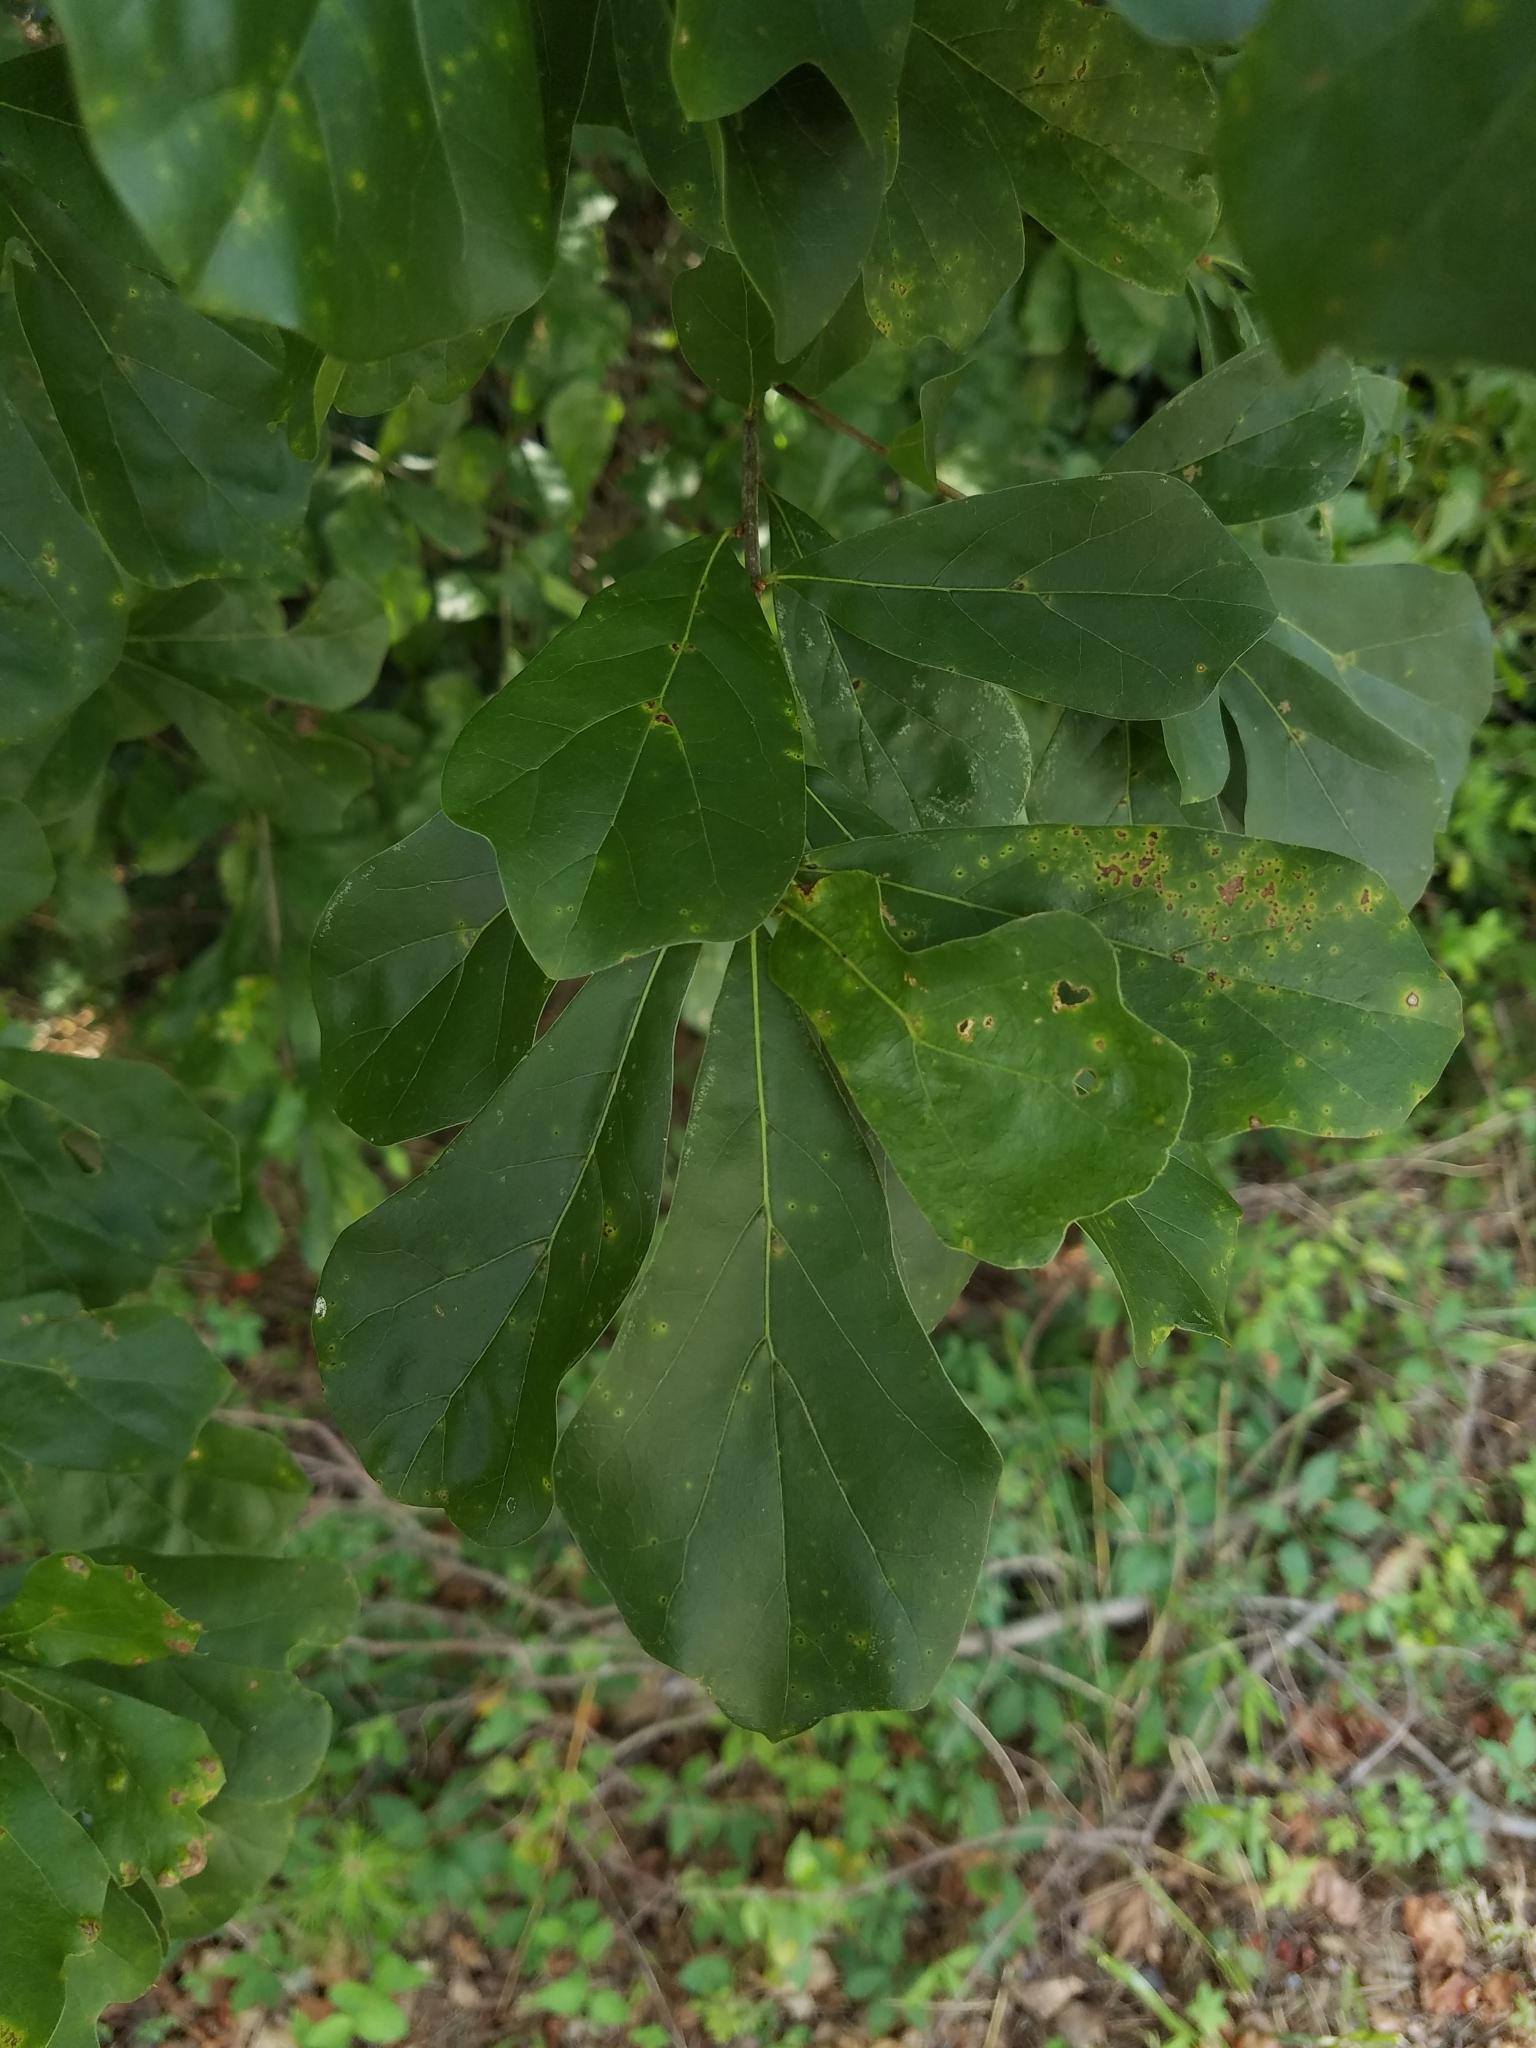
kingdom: Plantae
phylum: Tracheophyta
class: Magnoliopsida
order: Fagales
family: Fagaceae
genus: Quercus
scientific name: Quercus nigra
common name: Water oak
